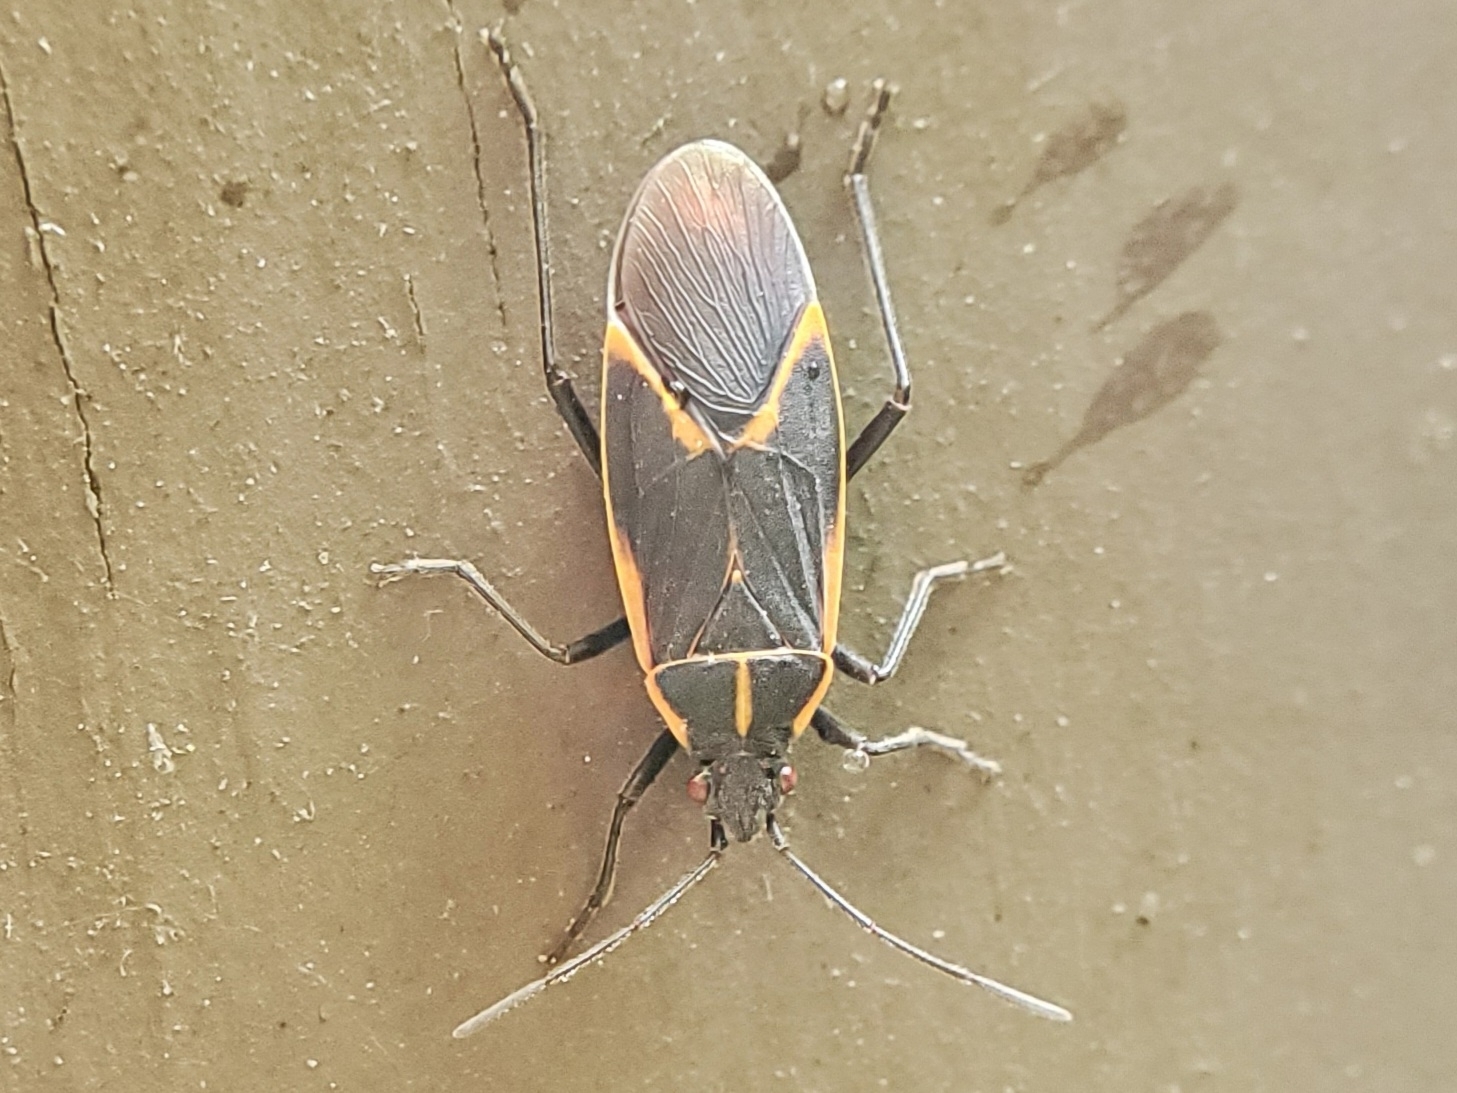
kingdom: Animalia
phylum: Arthropoda
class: Insecta
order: Hemiptera
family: Rhopalidae
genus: Boisea
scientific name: Boisea trivittata
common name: Boxelder bug
